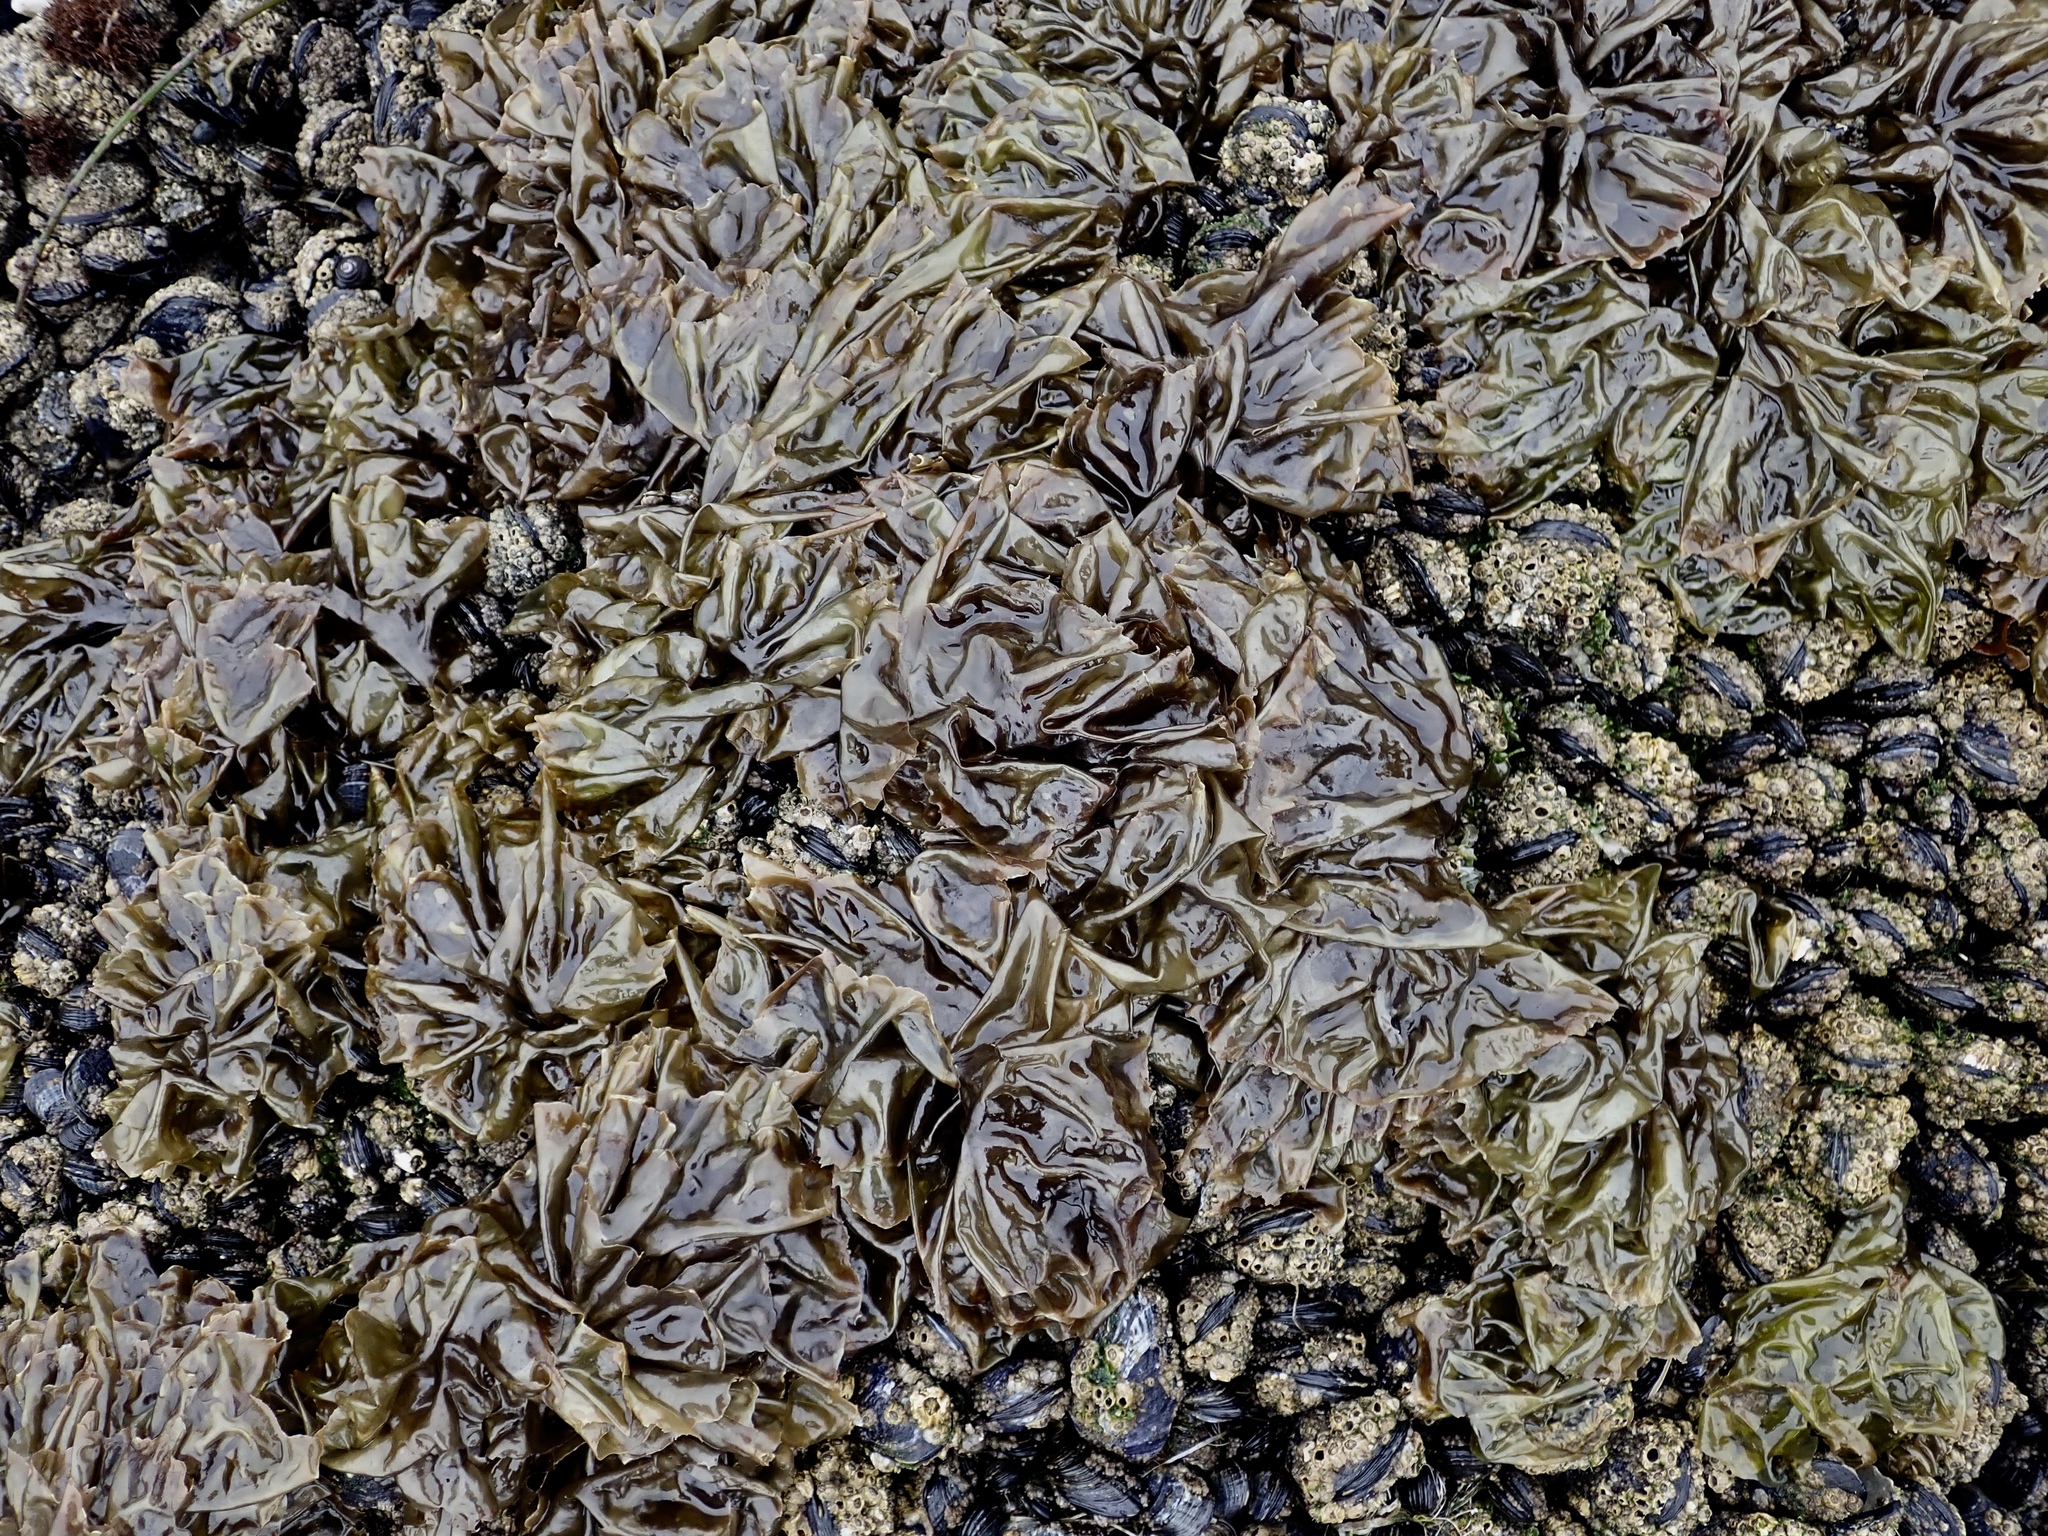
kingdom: Plantae
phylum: Rhodophyta
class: Bangiophyceae
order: Bangiales
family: Bangiaceae
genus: Neoporphyra
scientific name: Neoporphyra perforata
